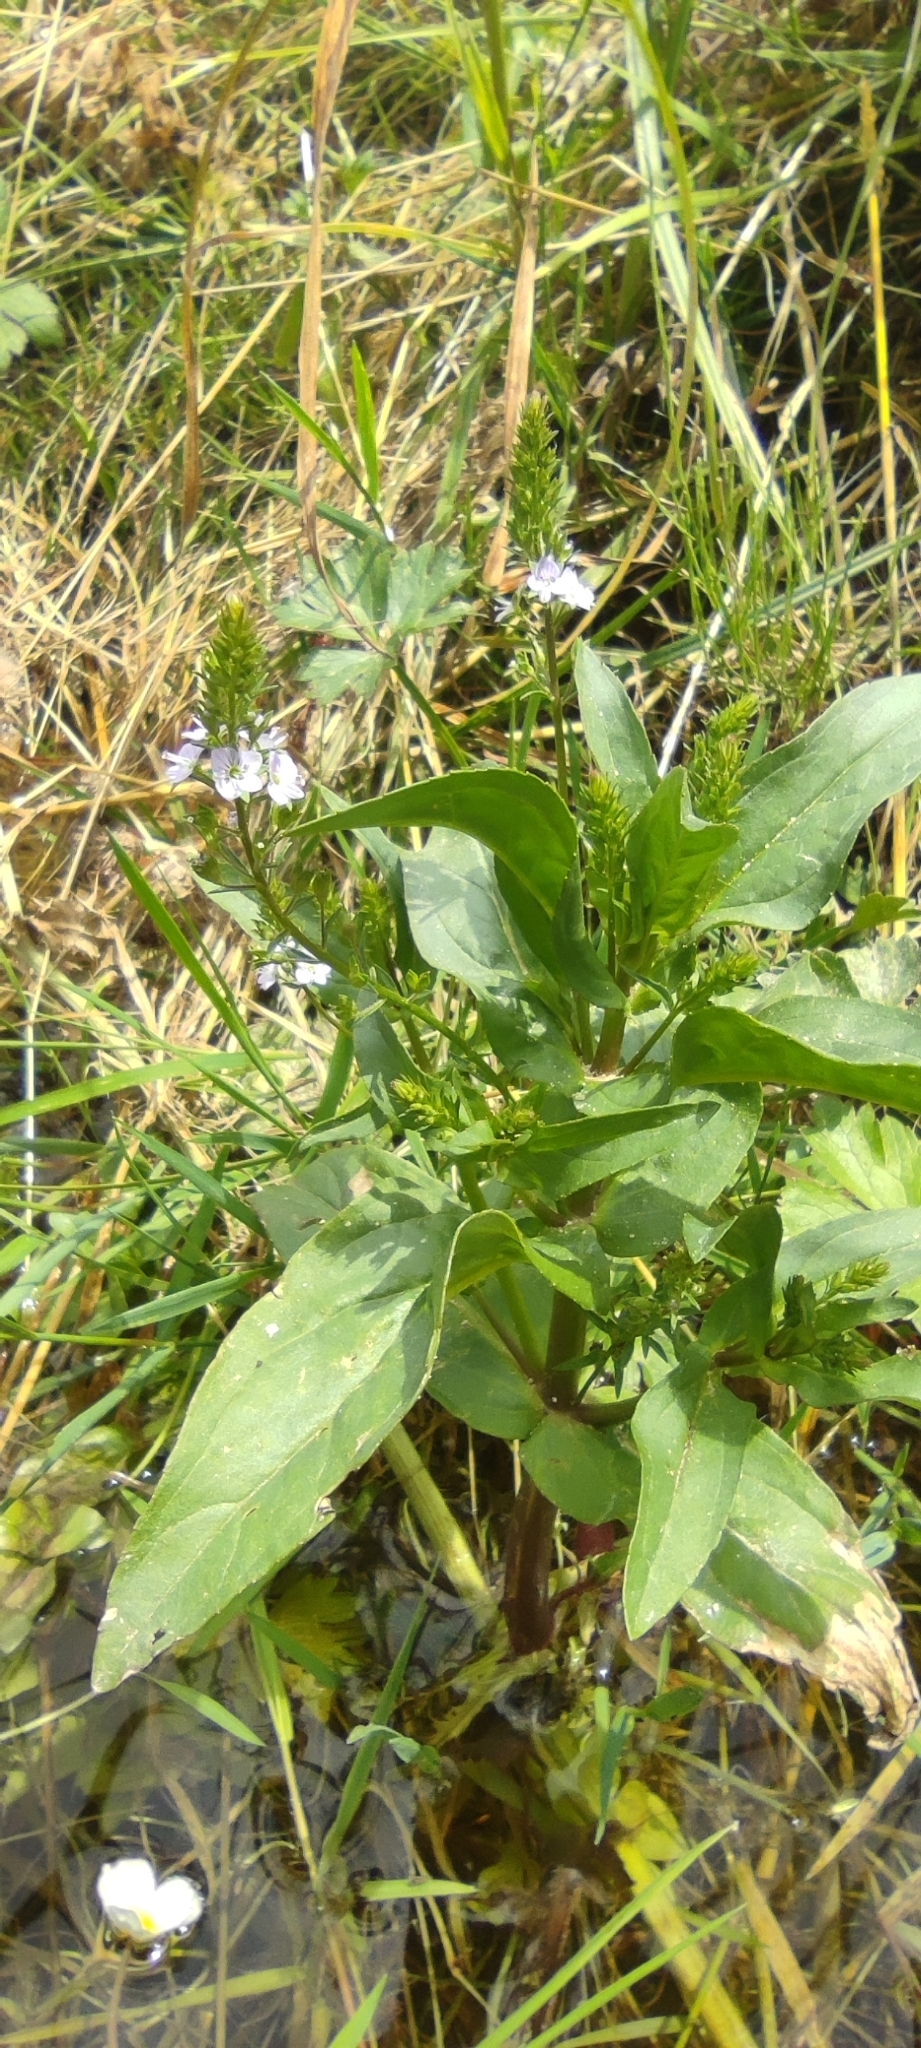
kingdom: Plantae
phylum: Tracheophyta
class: Magnoliopsida
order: Lamiales
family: Plantaginaceae
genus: Veronica
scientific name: Veronica anagallis-aquatica
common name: Water speedwell
